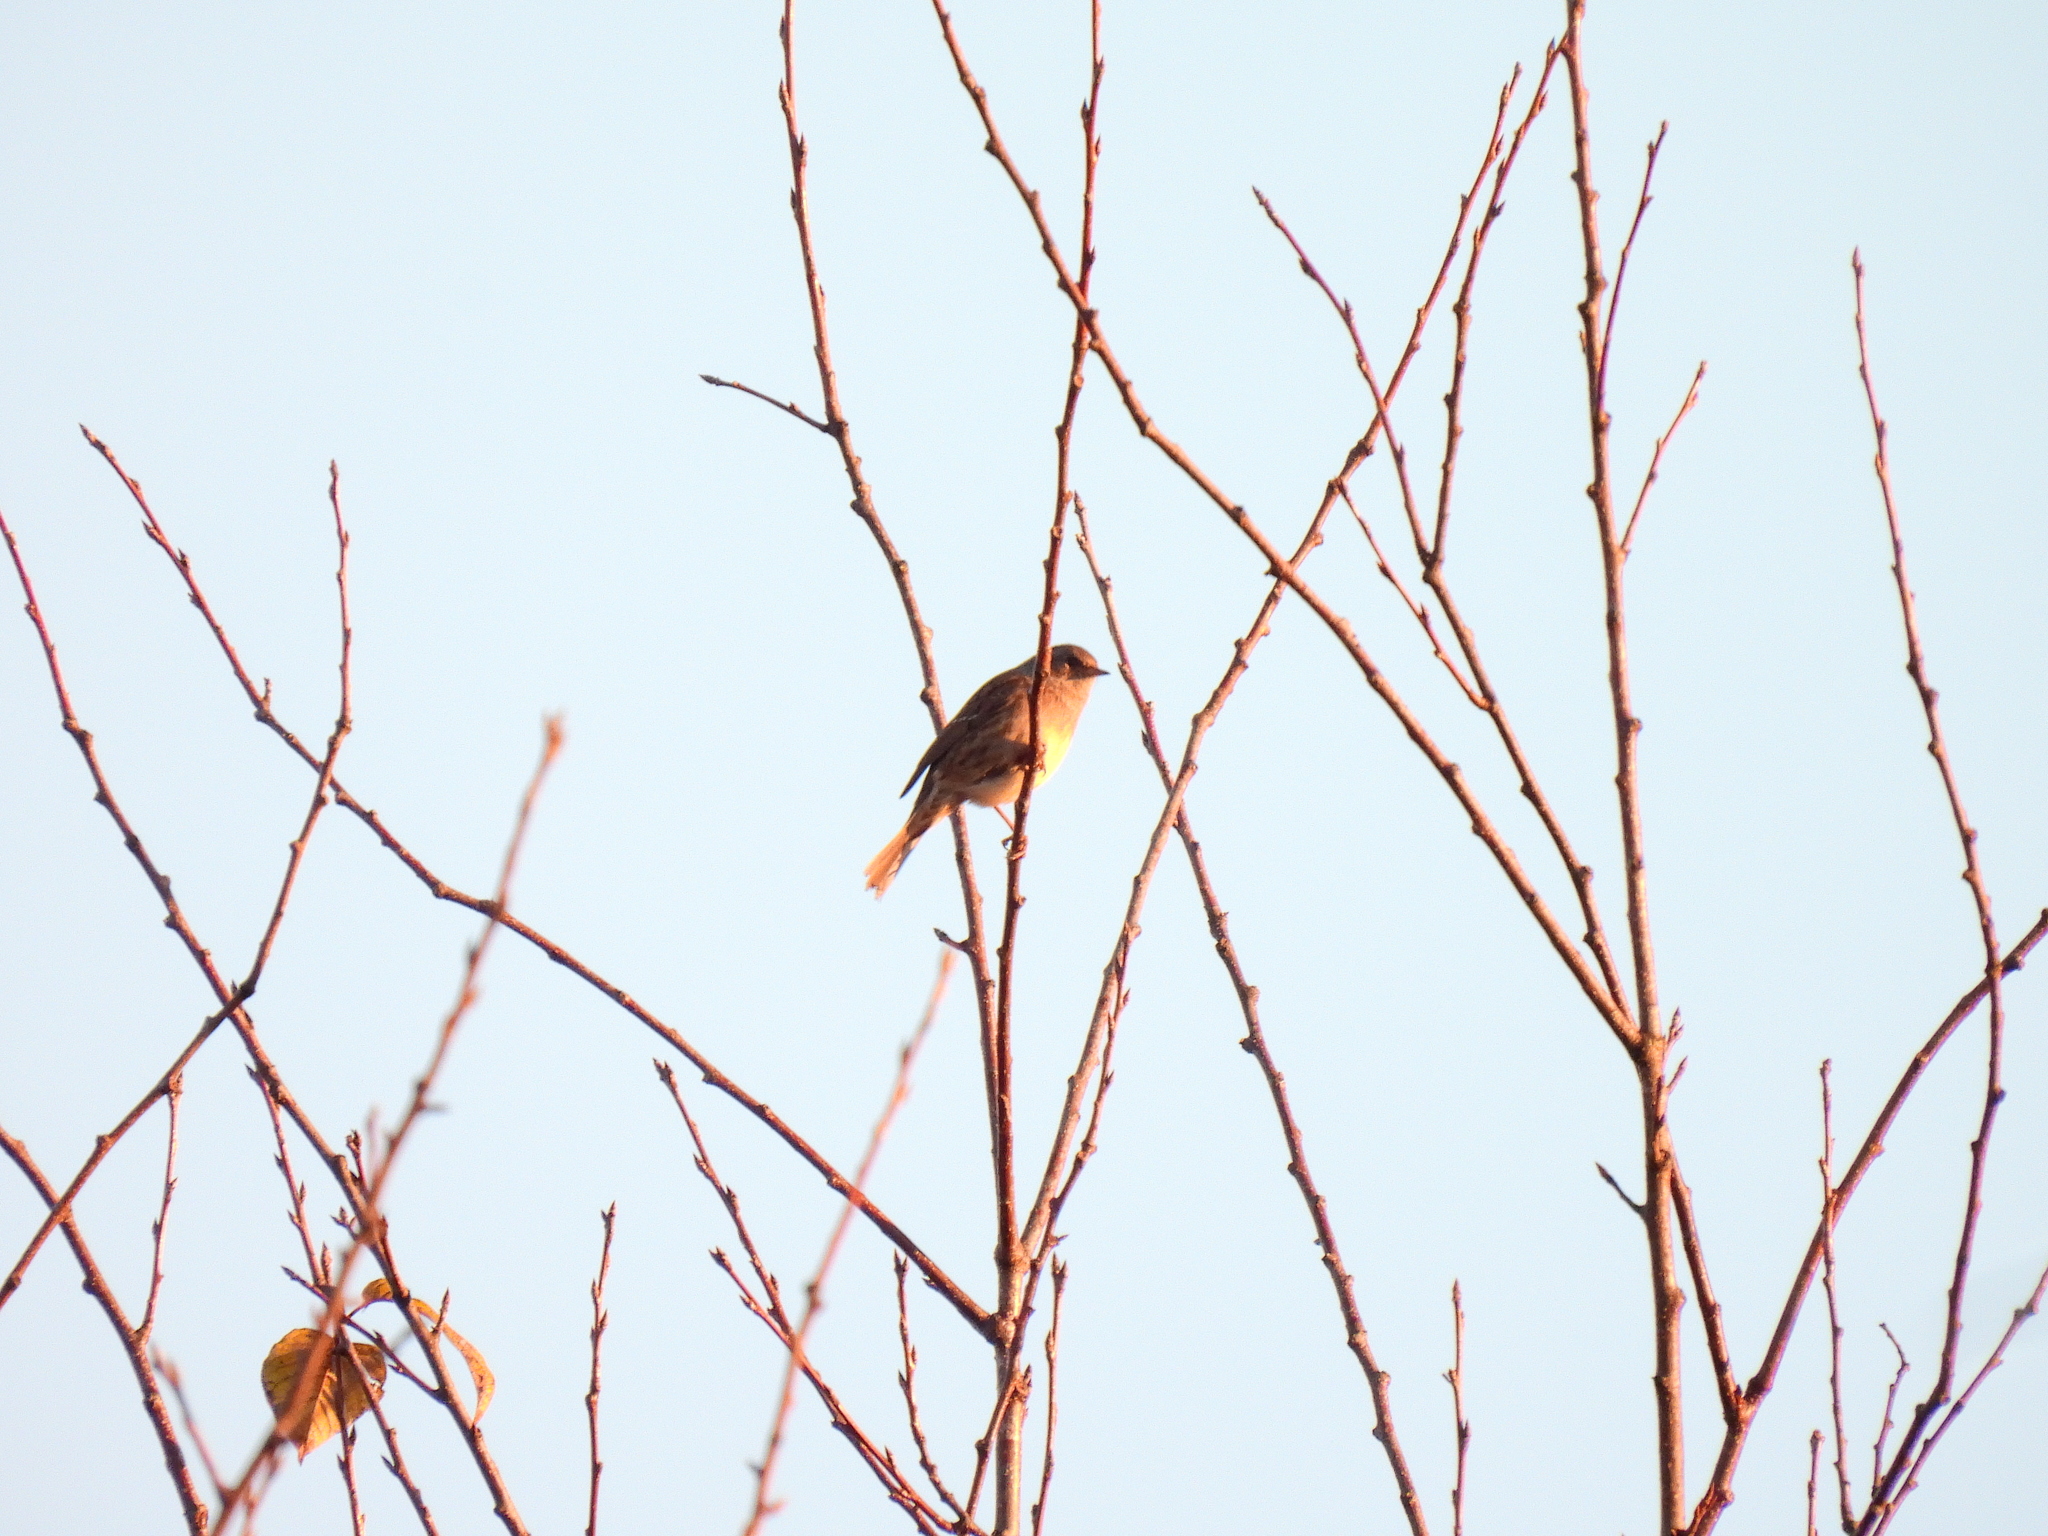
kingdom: Animalia
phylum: Chordata
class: Aves
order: Passeriformes
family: Prunellidae
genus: Prunella
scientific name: Prunella modularis
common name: Dunnock
